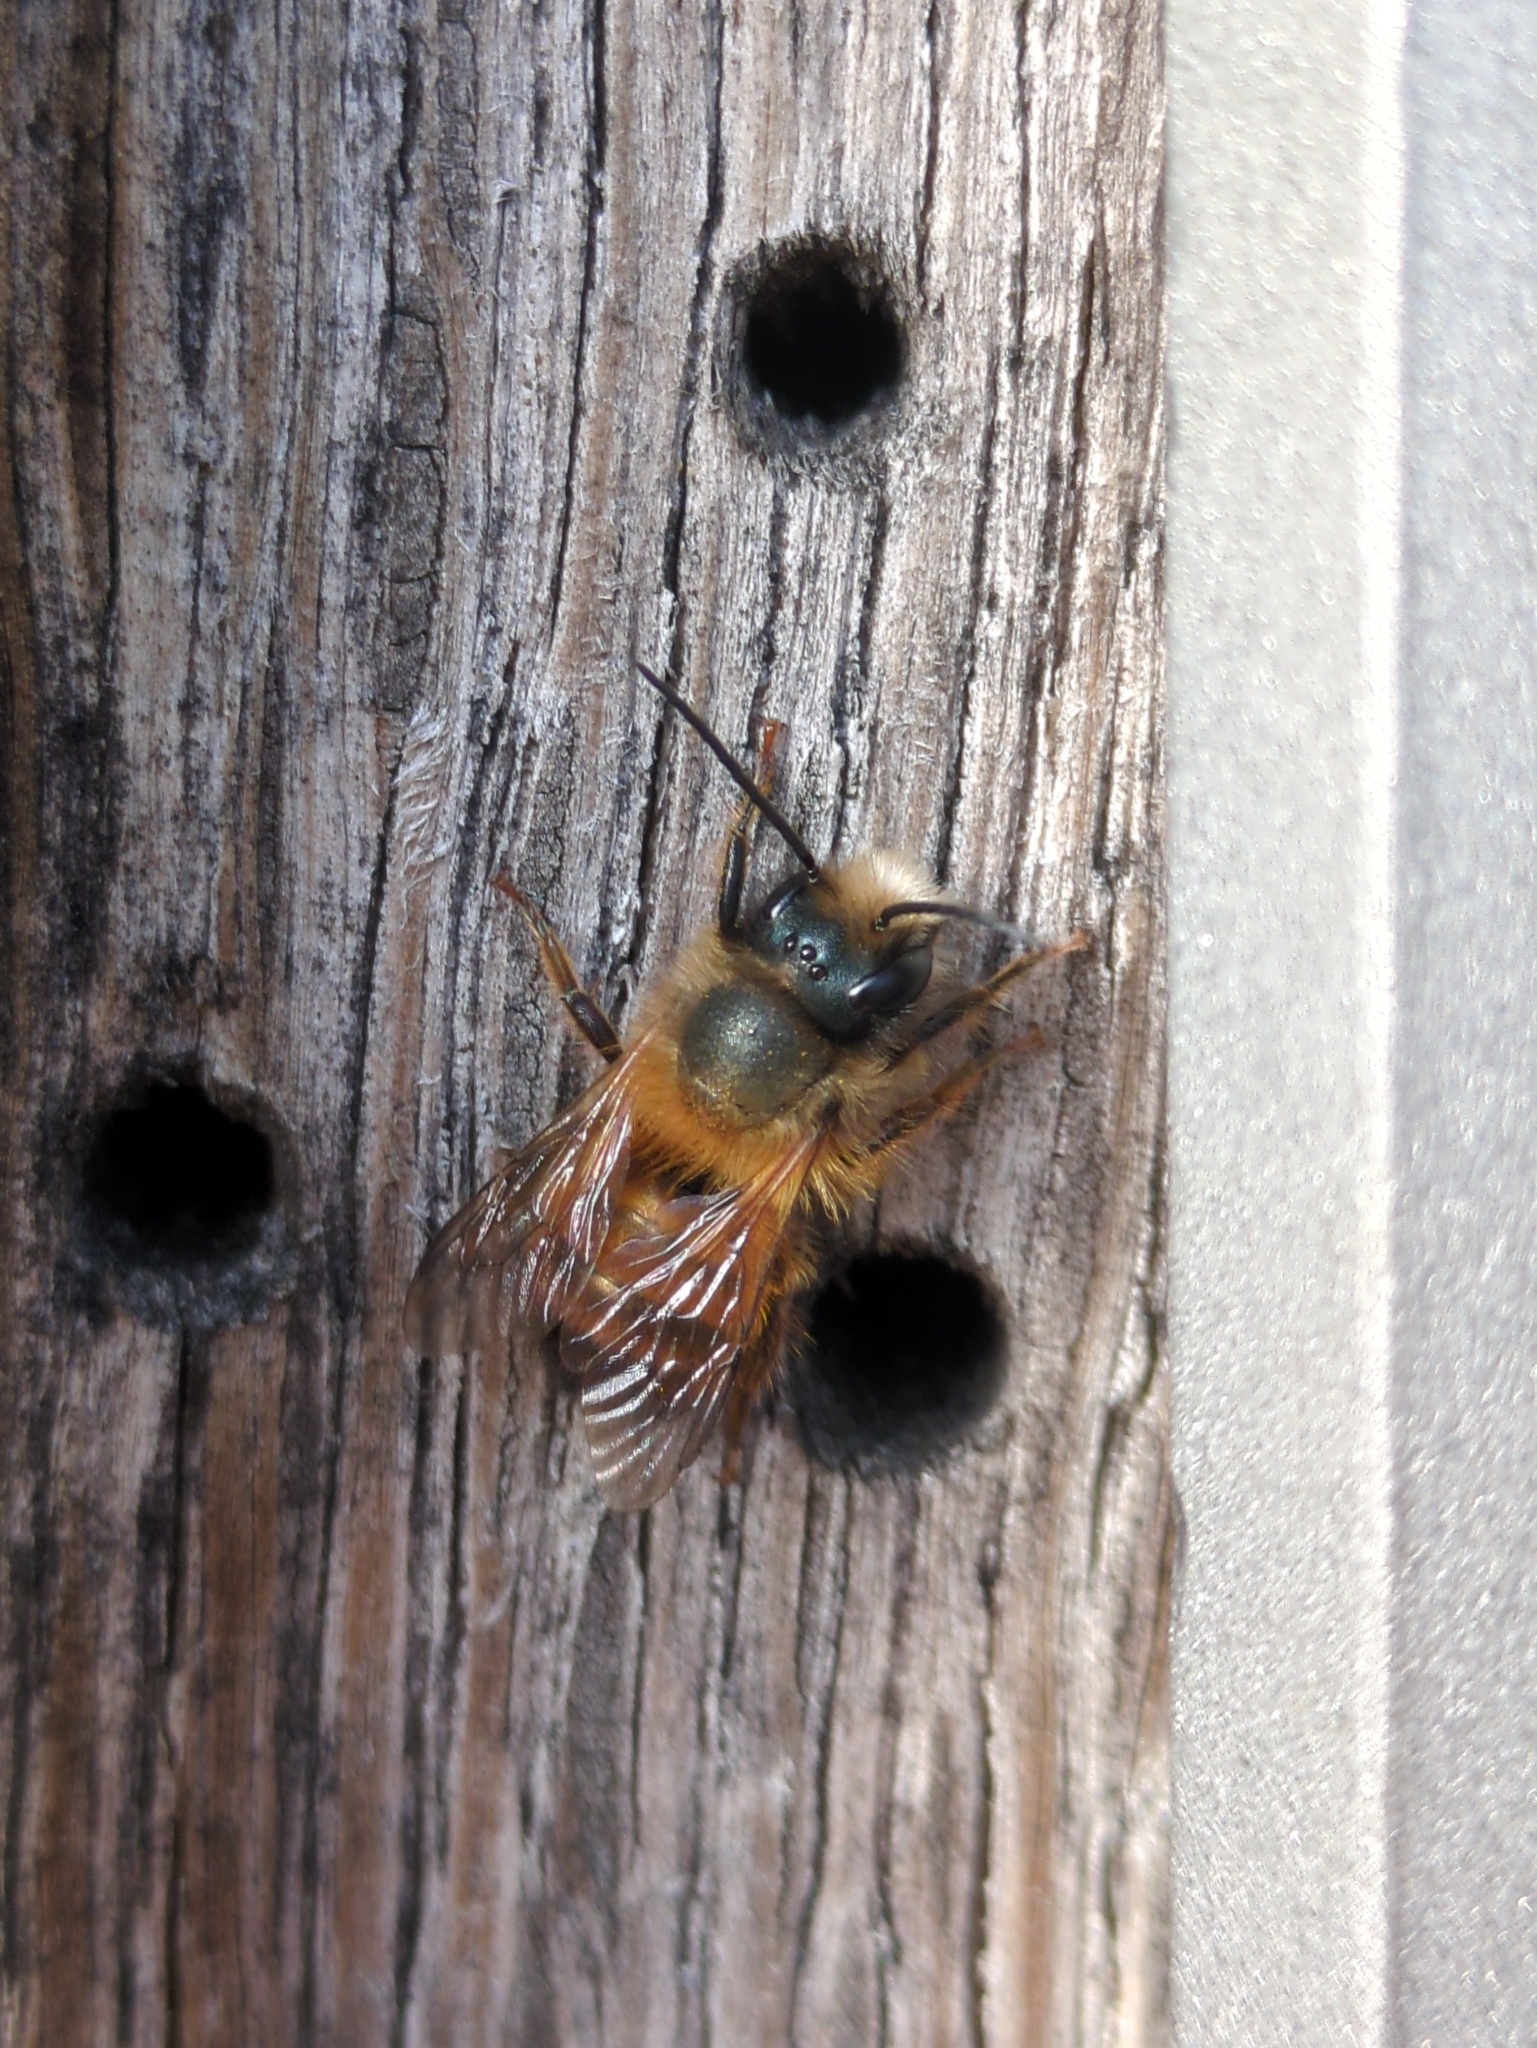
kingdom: Animalia
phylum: Arthropoda
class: Insecta
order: Hymenoptera
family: Megachilidae
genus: Osmia
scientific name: Osmia bicornis
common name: Red mason bee
